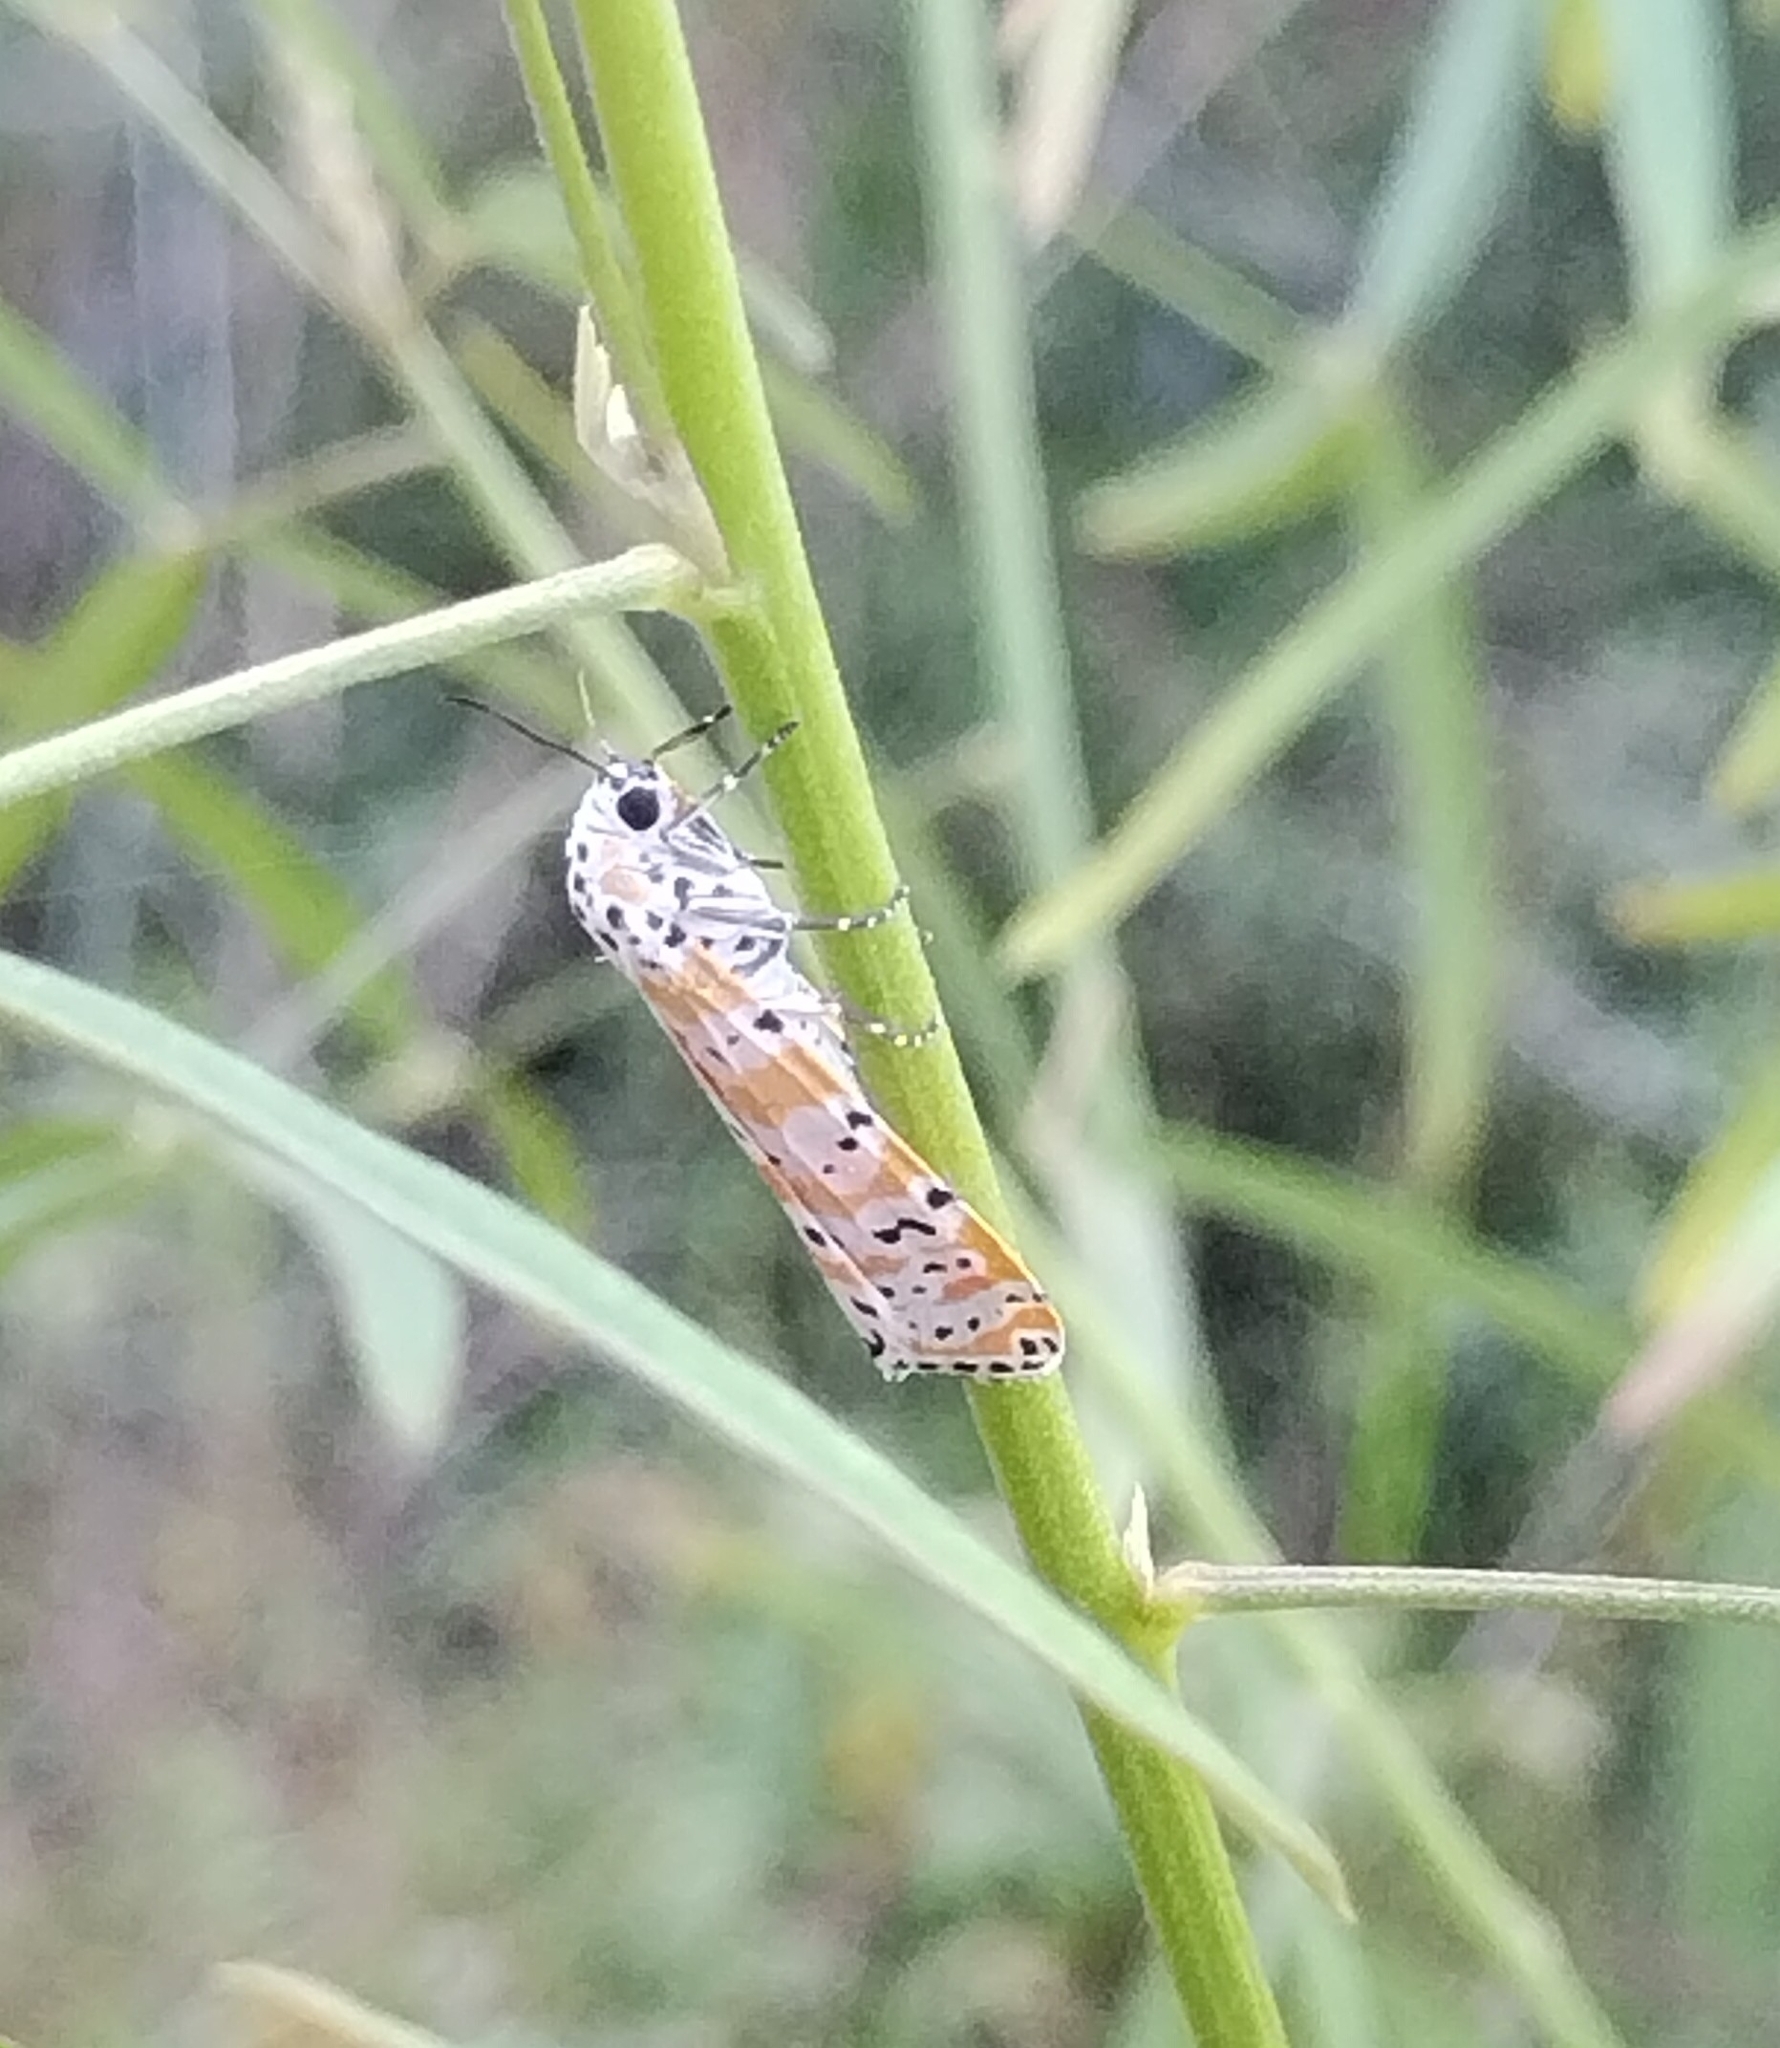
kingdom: Animalia
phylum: Arthropoda
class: Insecta
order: Lepidoptera
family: Erebidae
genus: Utetheisa
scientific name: Utetheisa ornatrix
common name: Beautiful utetheisa
